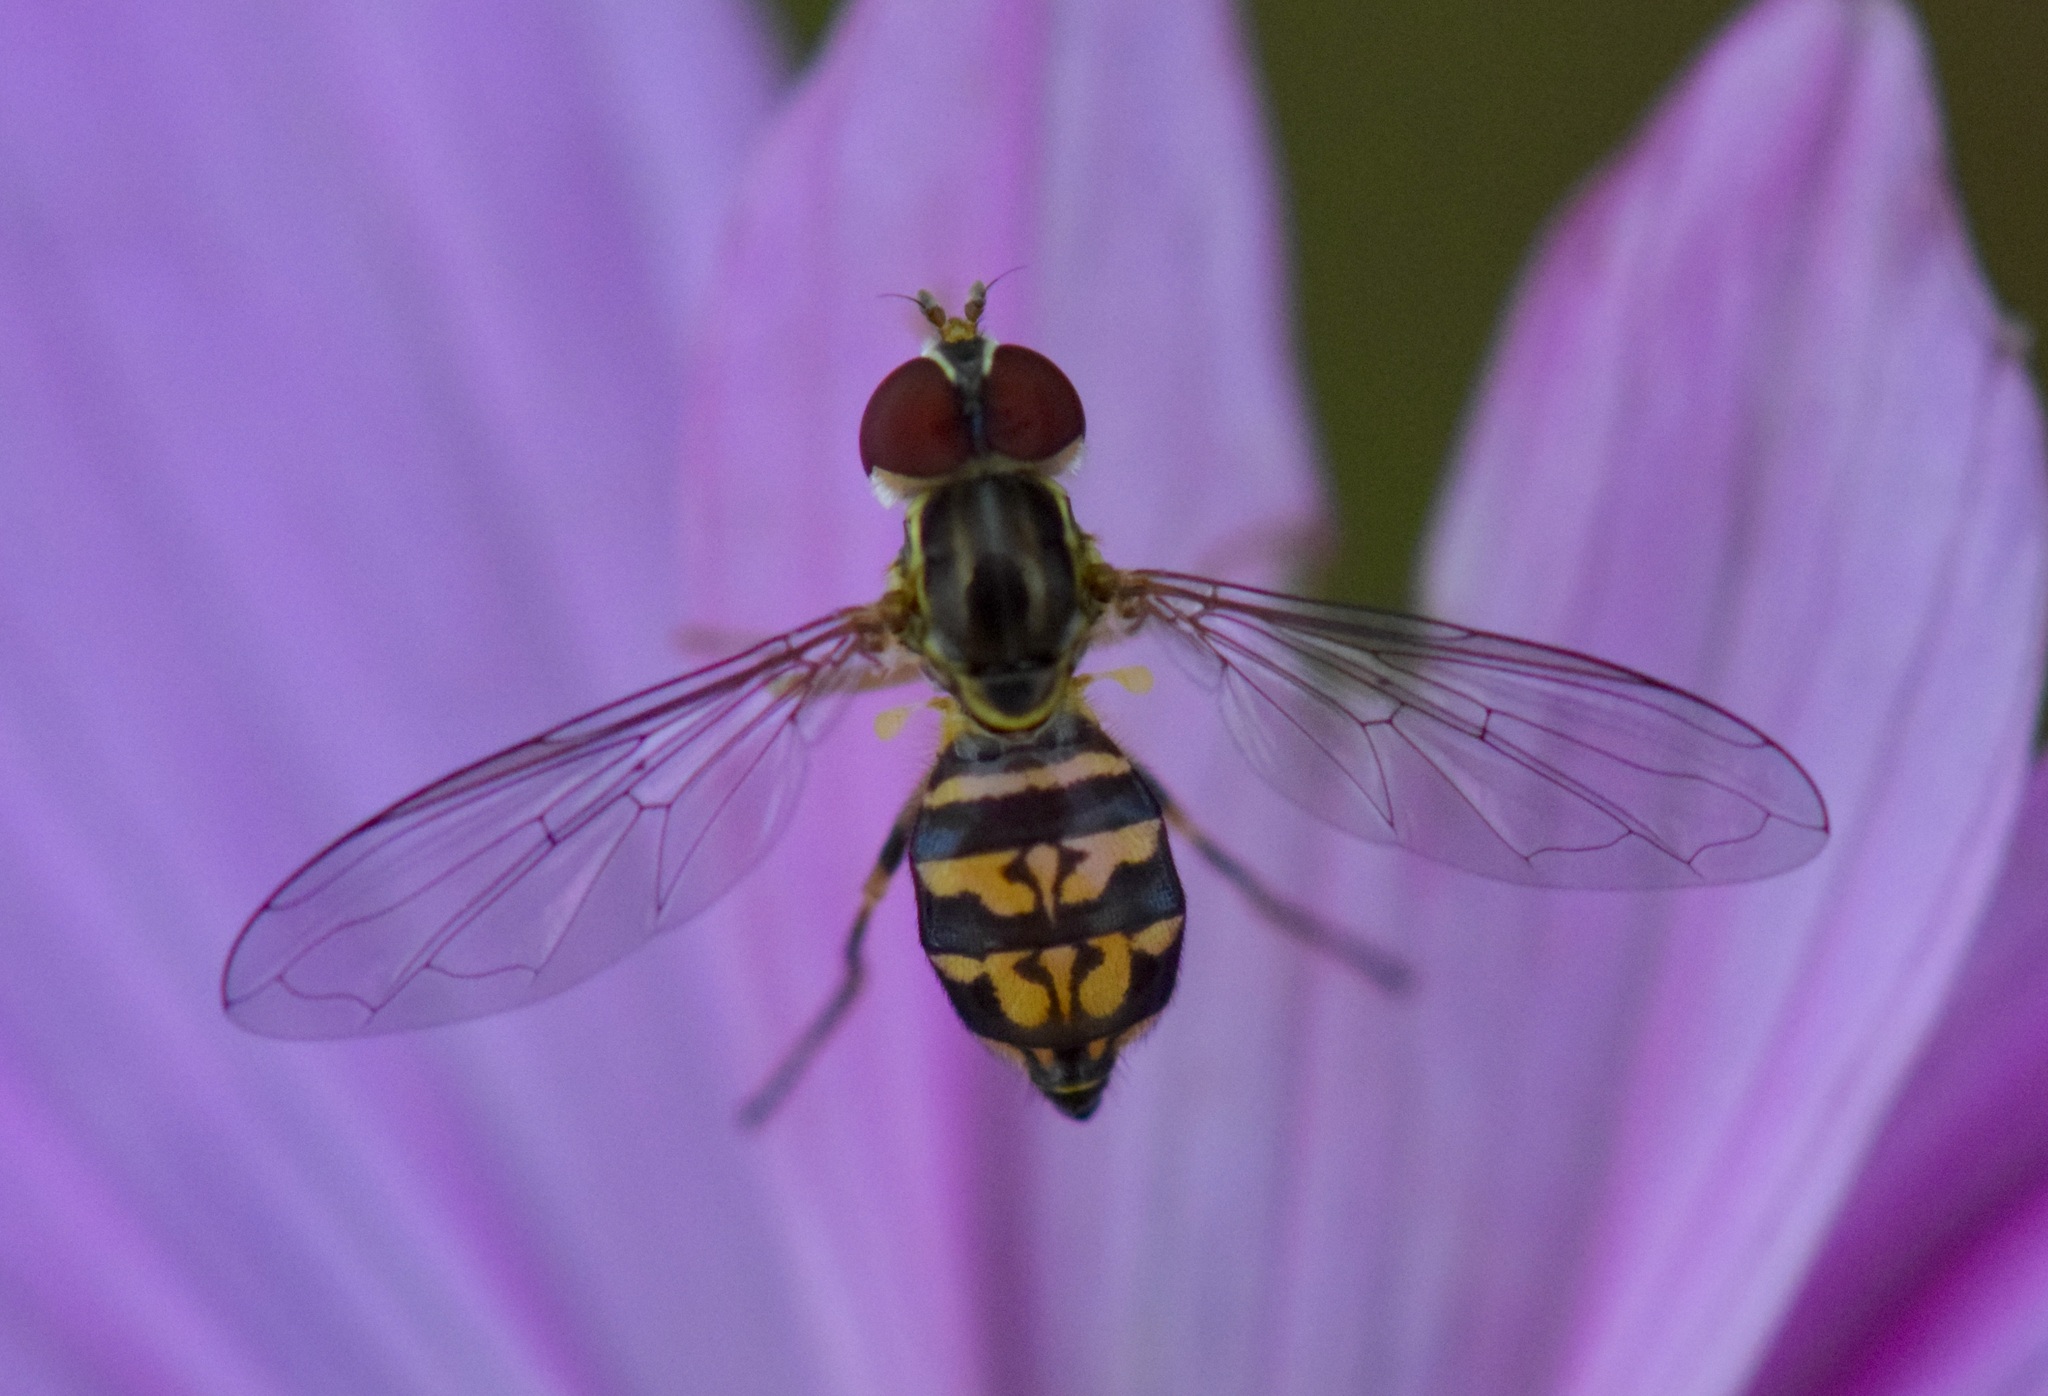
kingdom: Animalia
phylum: Arthropoda
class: Insecta
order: Diptera
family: Syrphidae
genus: Toxomerus
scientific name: Toxomerus geminatus
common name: Eastern calligrapher
